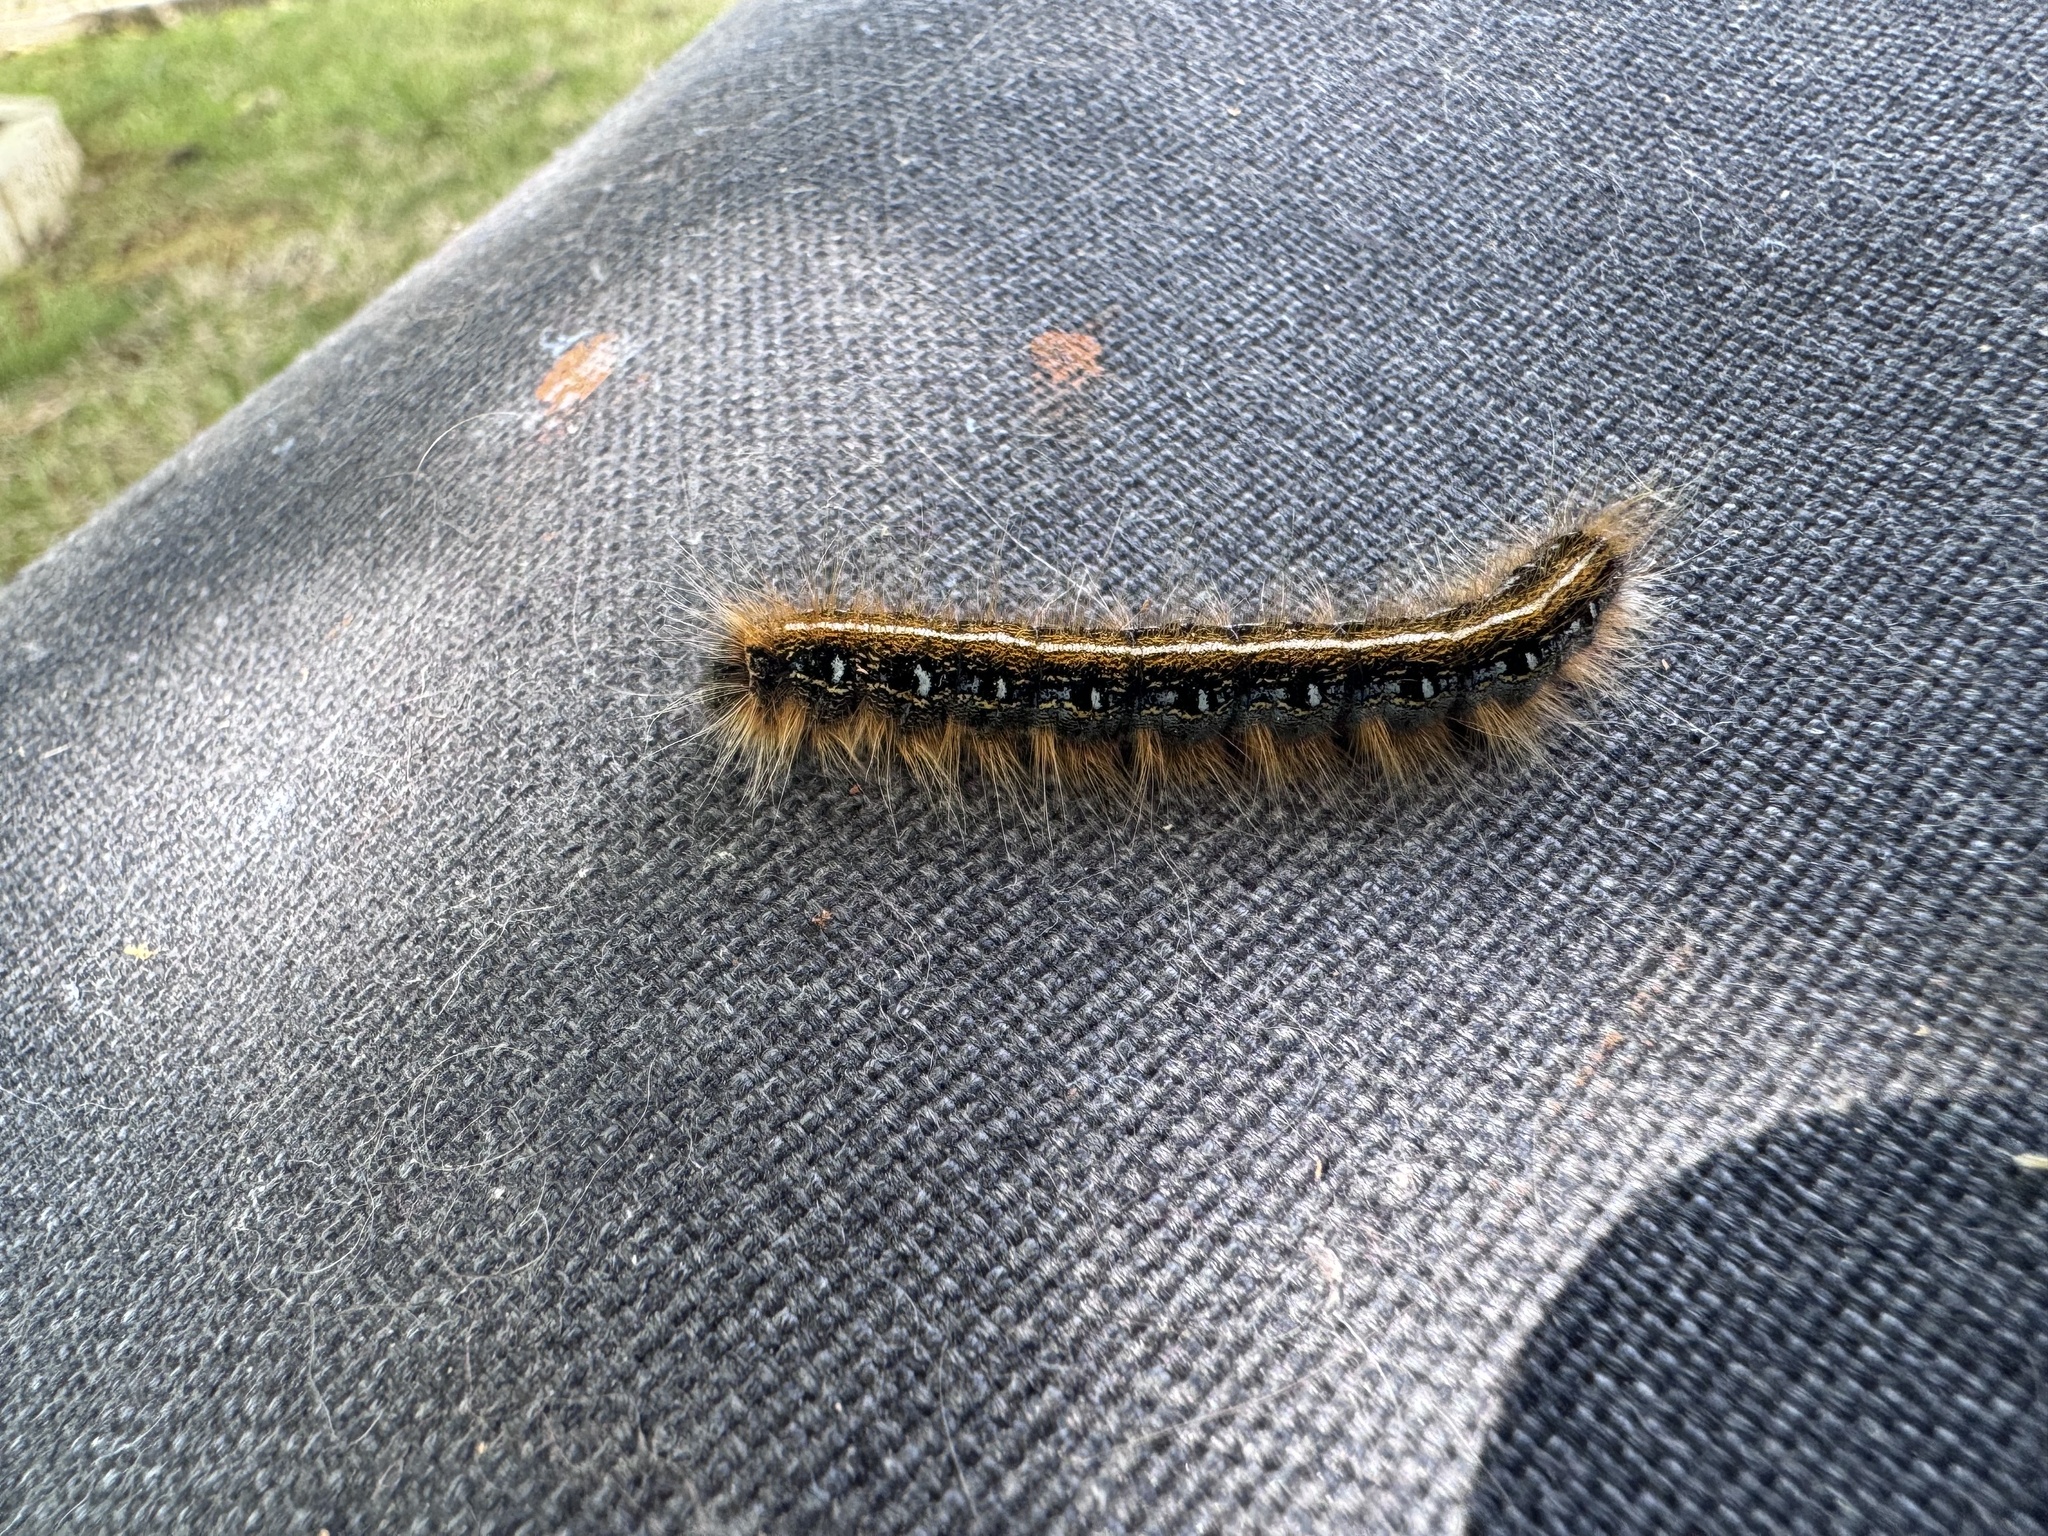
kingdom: Animalia
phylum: Arthropoda
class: Insecta
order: Lepidoptera
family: Lasiocampidae
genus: Malacosoma
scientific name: Malacosoma americana
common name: Eastern tent caterpillar moth
